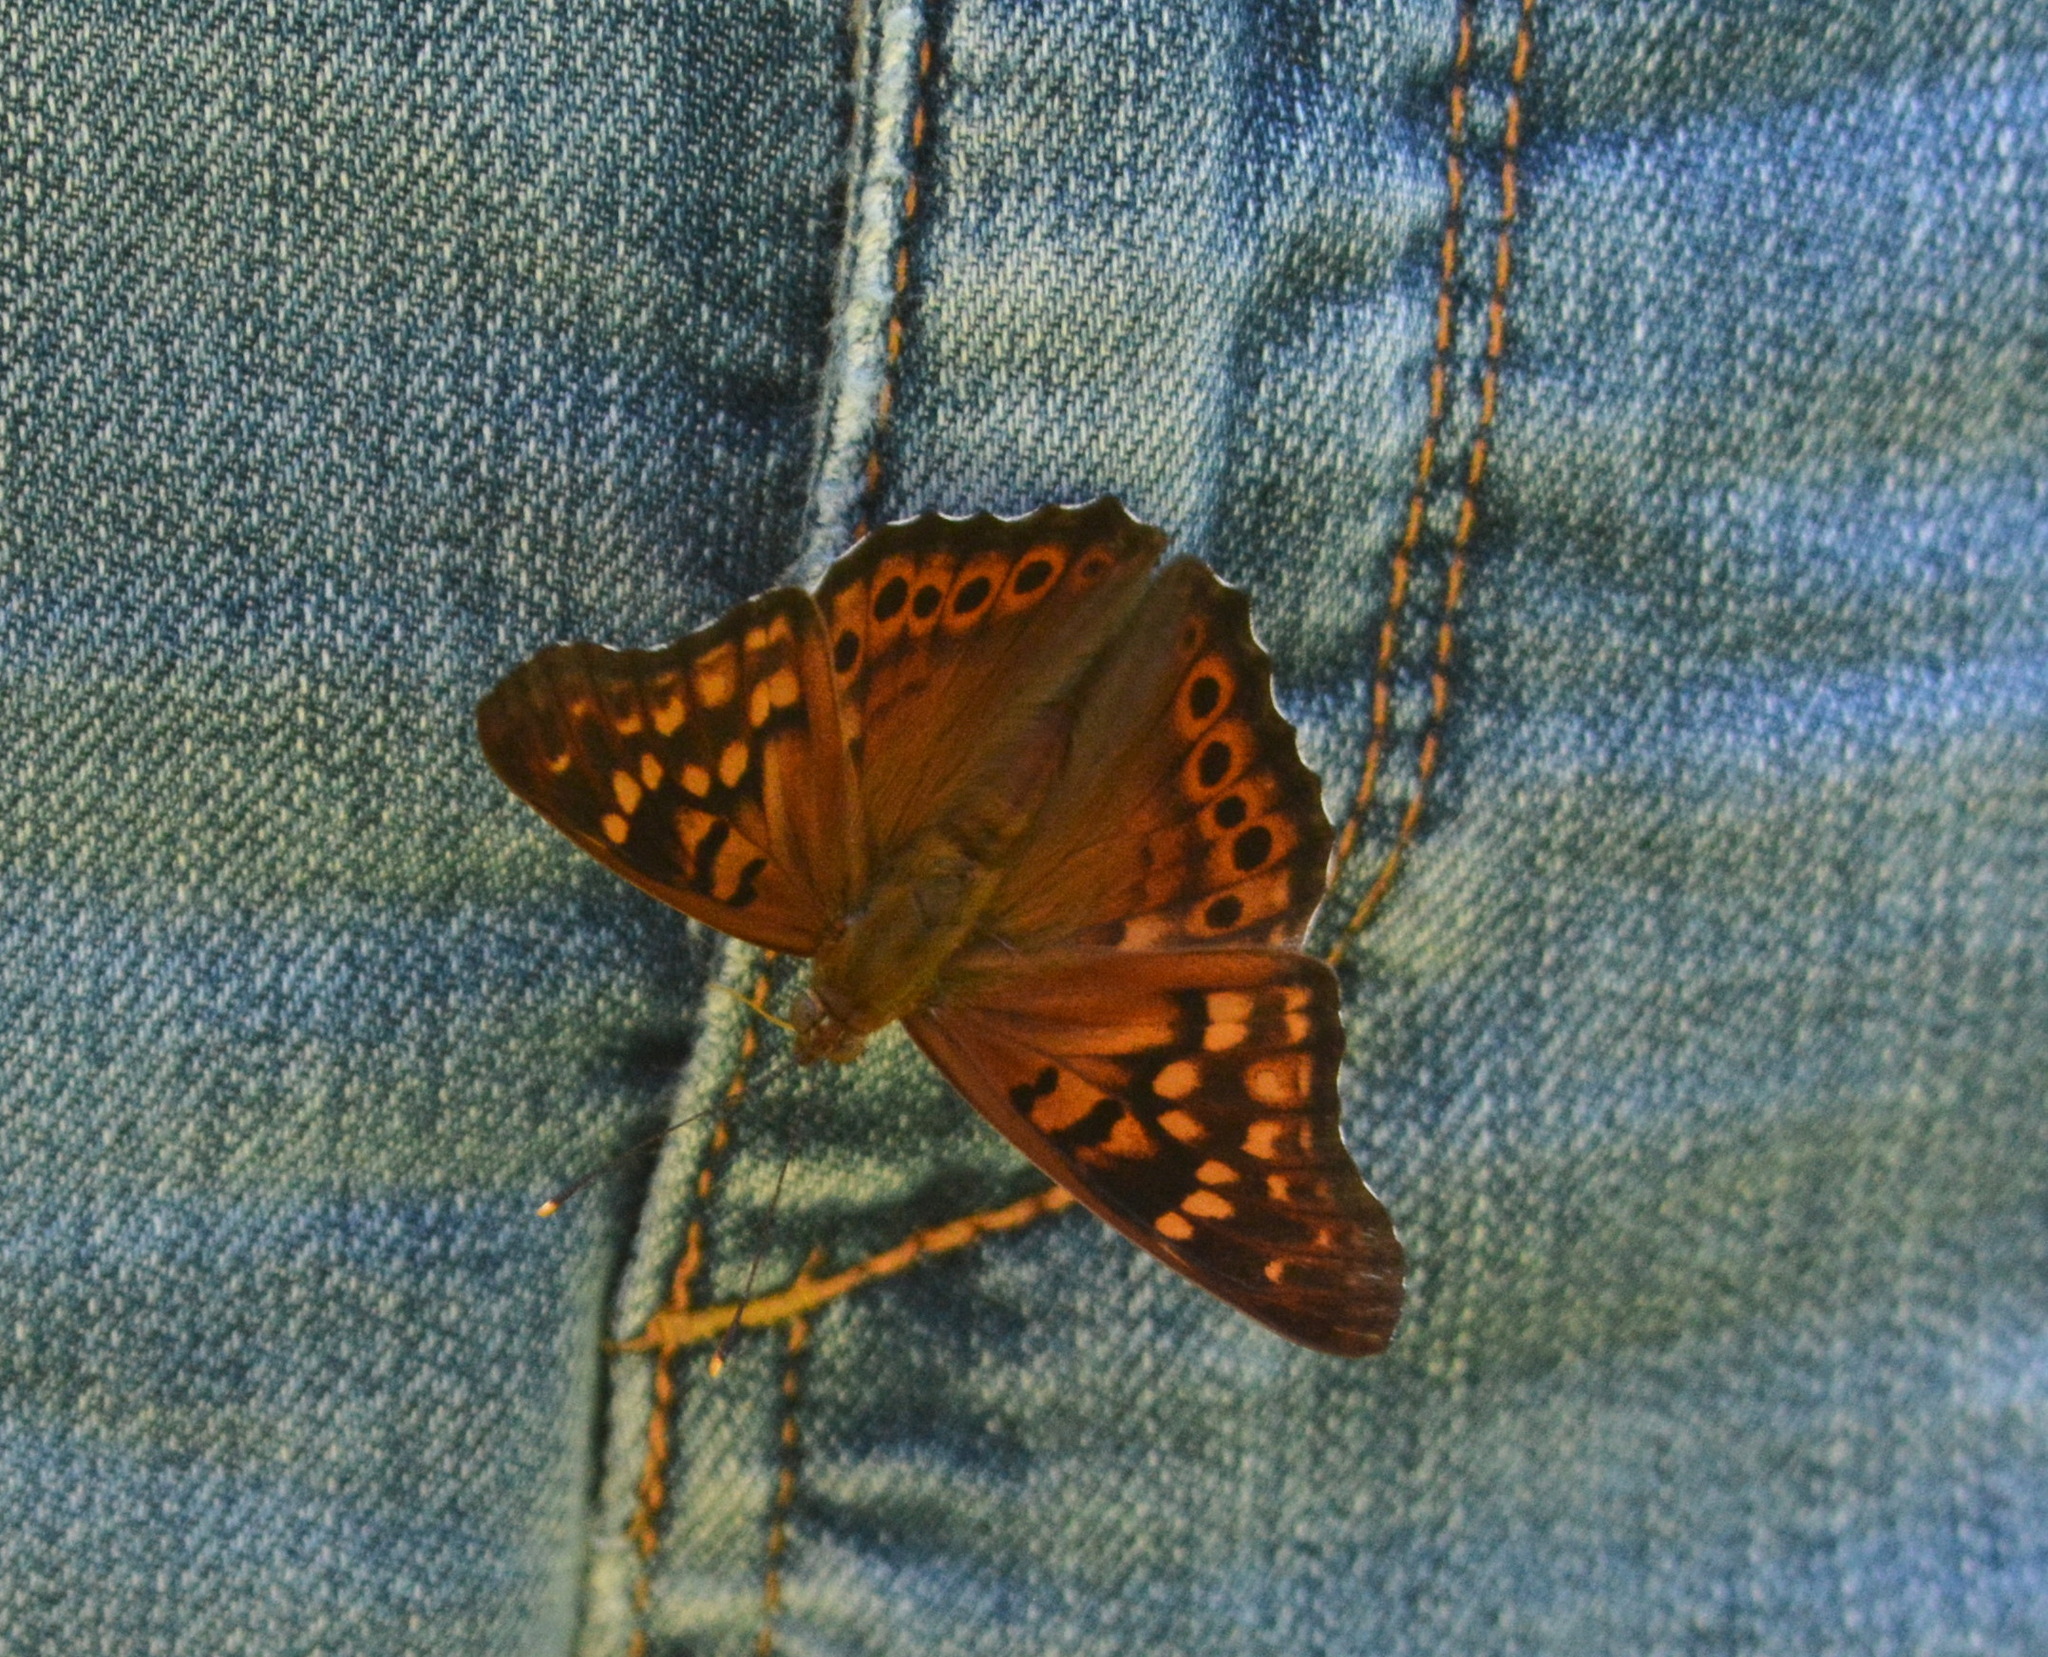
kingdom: Animalia
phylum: Arthropoda
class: Insecta
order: Lepidoptera
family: Nymphalidae
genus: Asterocampa
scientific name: Asterocampa clyton
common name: Tawny emperor
